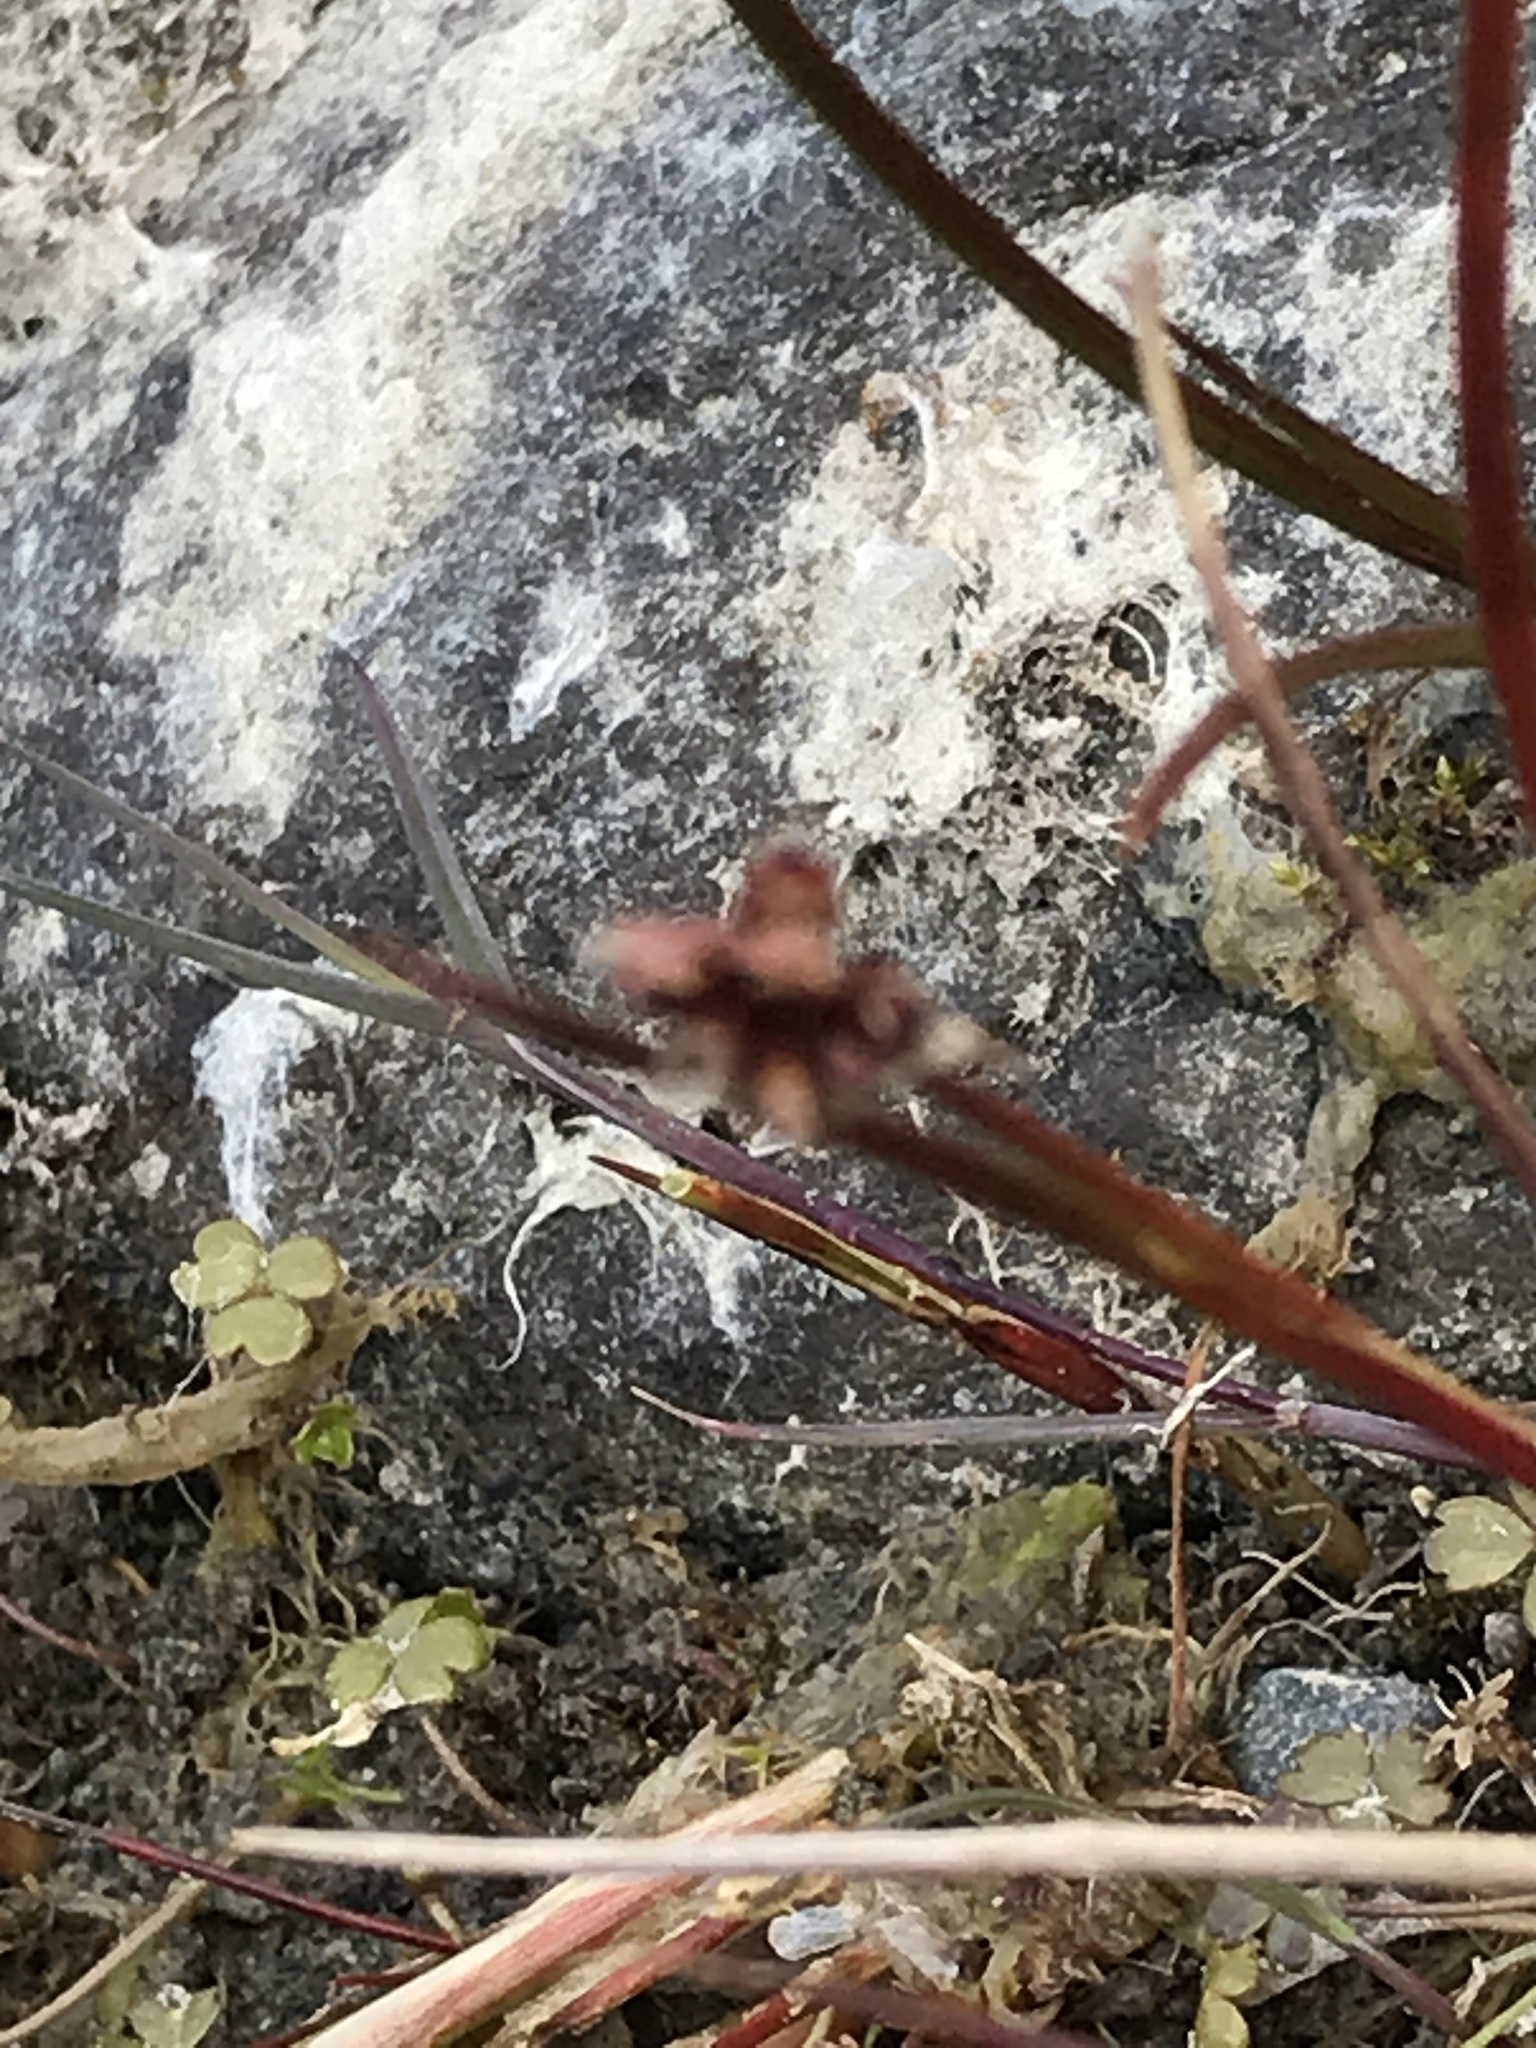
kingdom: Plantae
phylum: Tracheophyta
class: Liliopsida
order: Poales
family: Juncaceae
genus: Juncus
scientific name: Juncus articulatus
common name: Jointed rush
